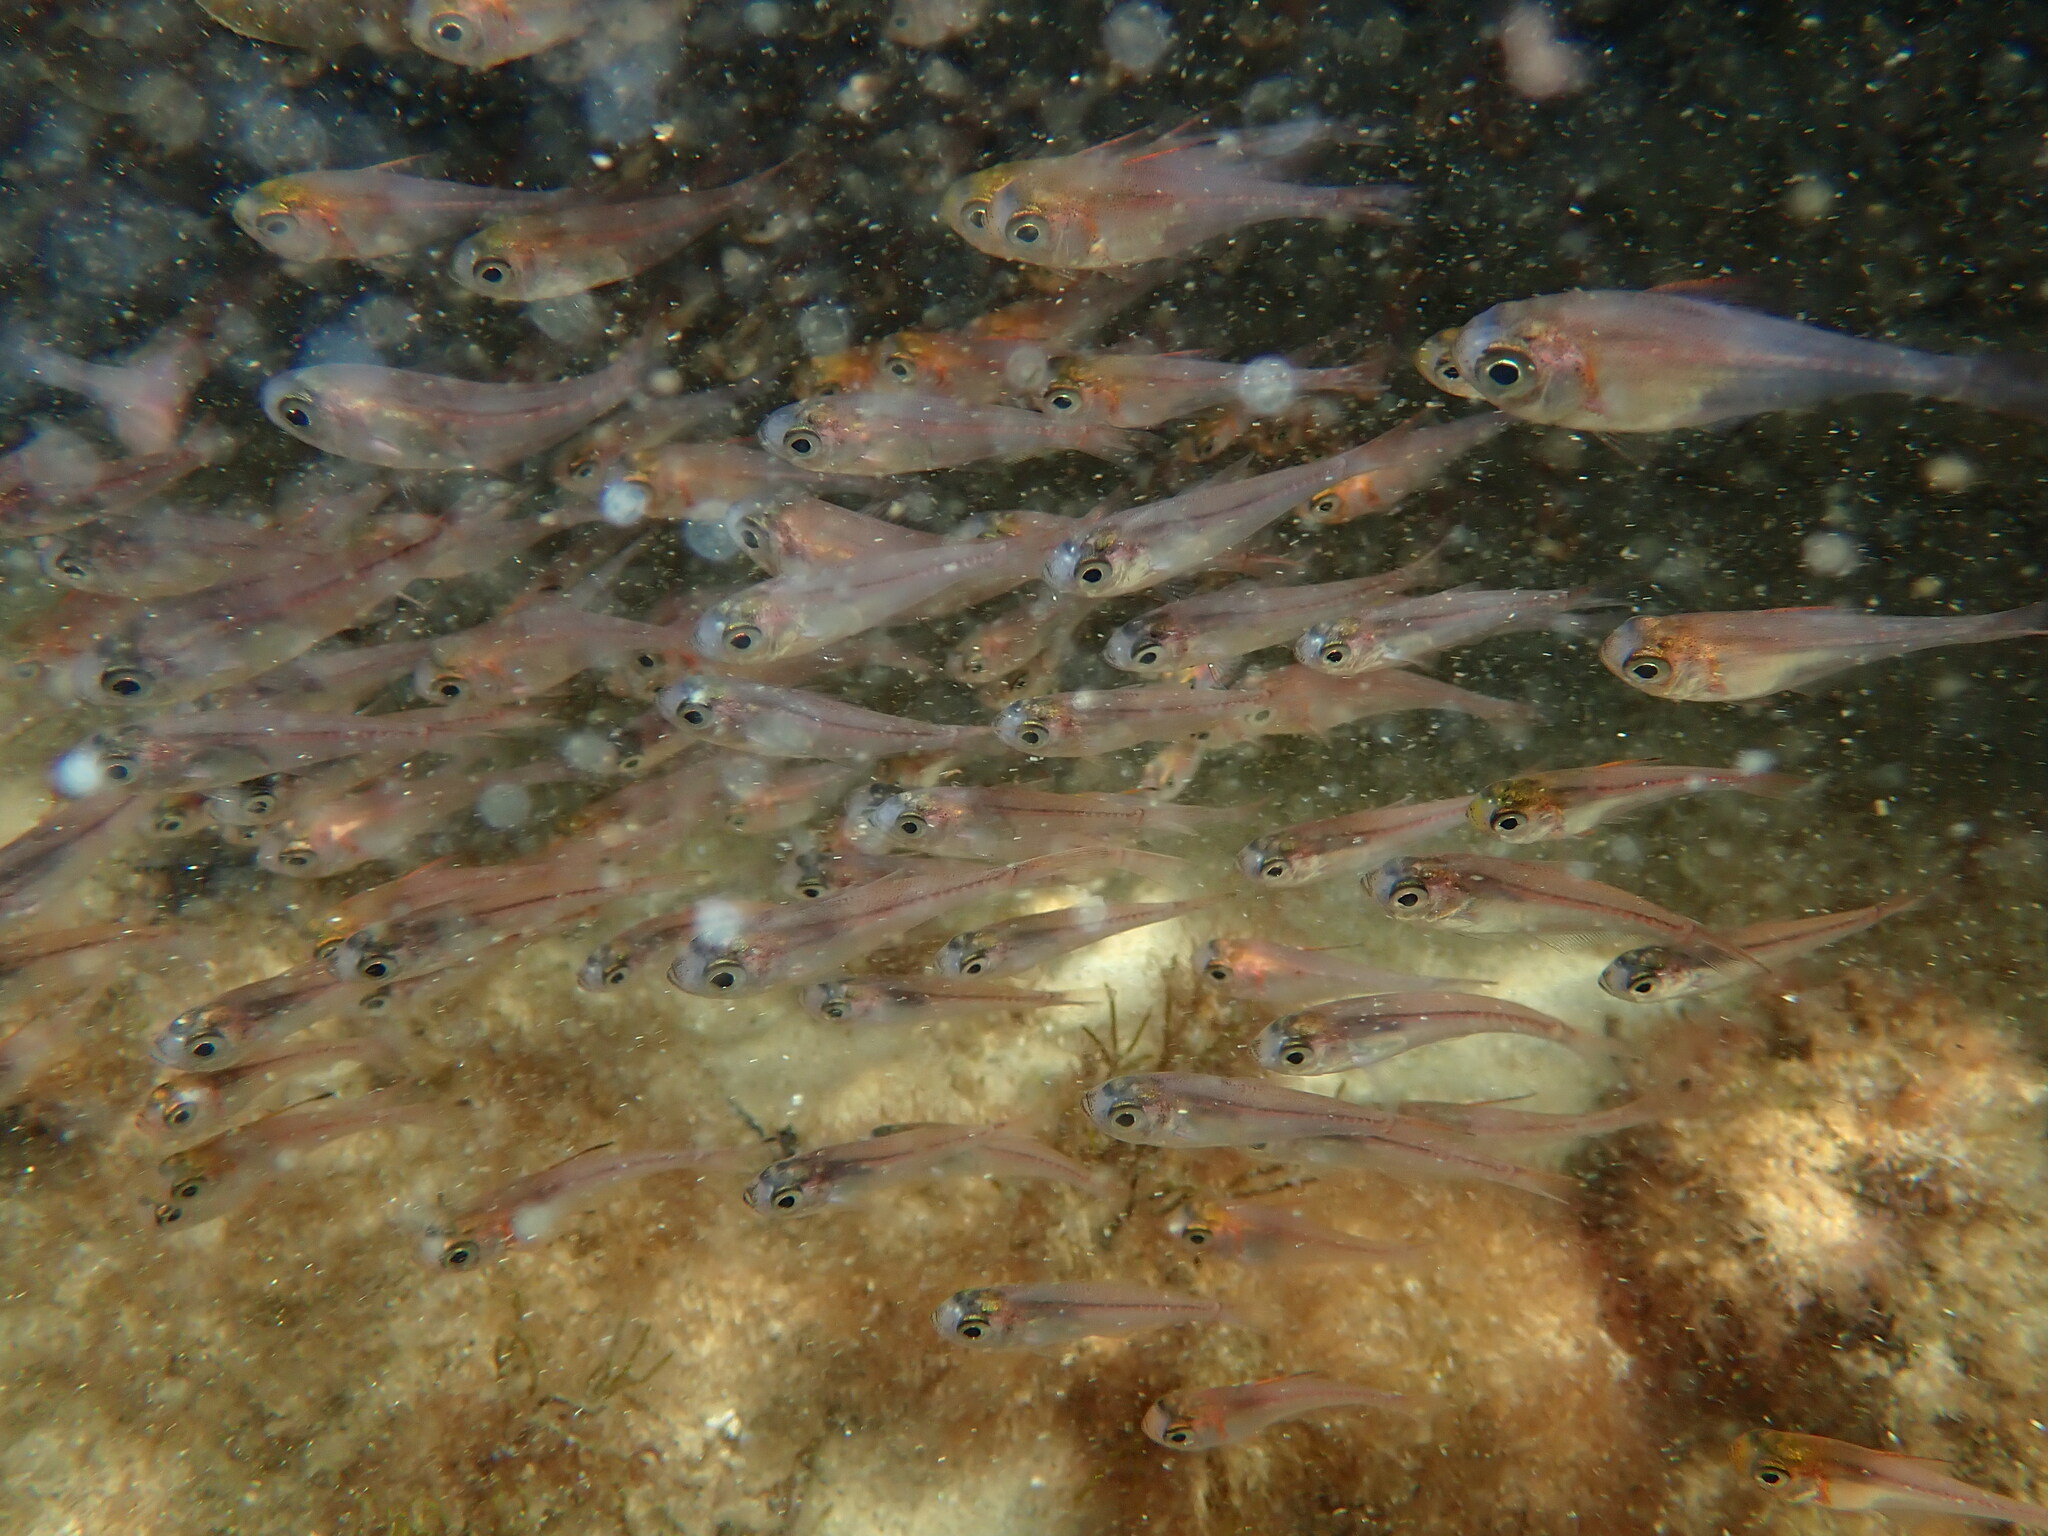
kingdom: Animalia
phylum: Chordata
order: Perciformes
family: Pempheridae
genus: Parapriacanthus
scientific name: Parapriacanthus elongatus
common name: Slender bullseye
